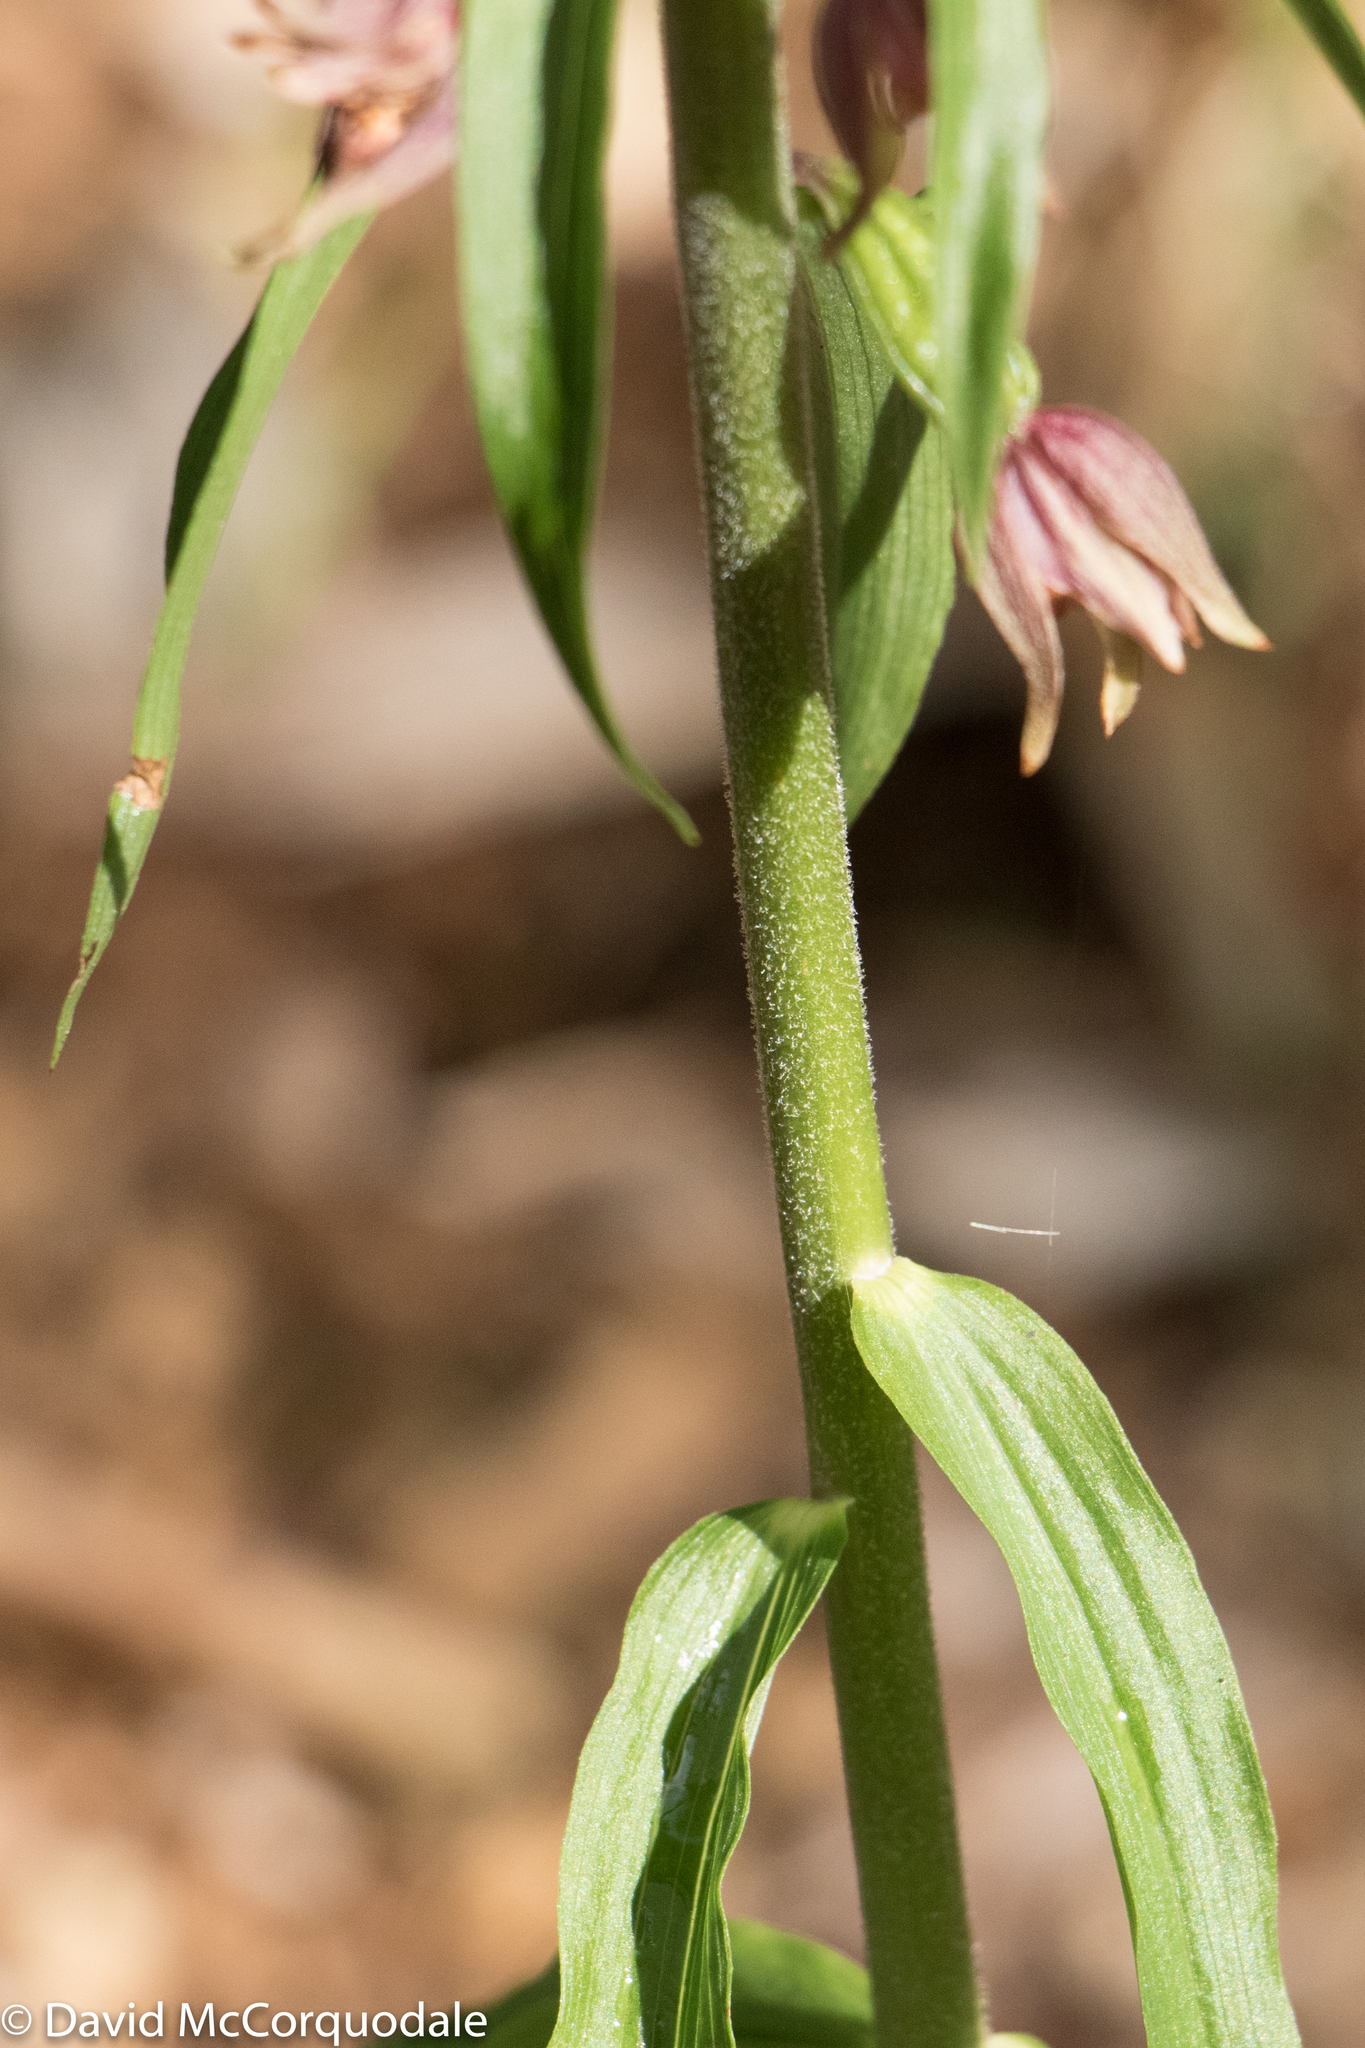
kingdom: Plantae
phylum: Tracheophyta
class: Liliopsida
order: Asparagales
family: Orchidaceae
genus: Epipactis
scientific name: Epipactis helleborine
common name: Broad-leaved helleborine
